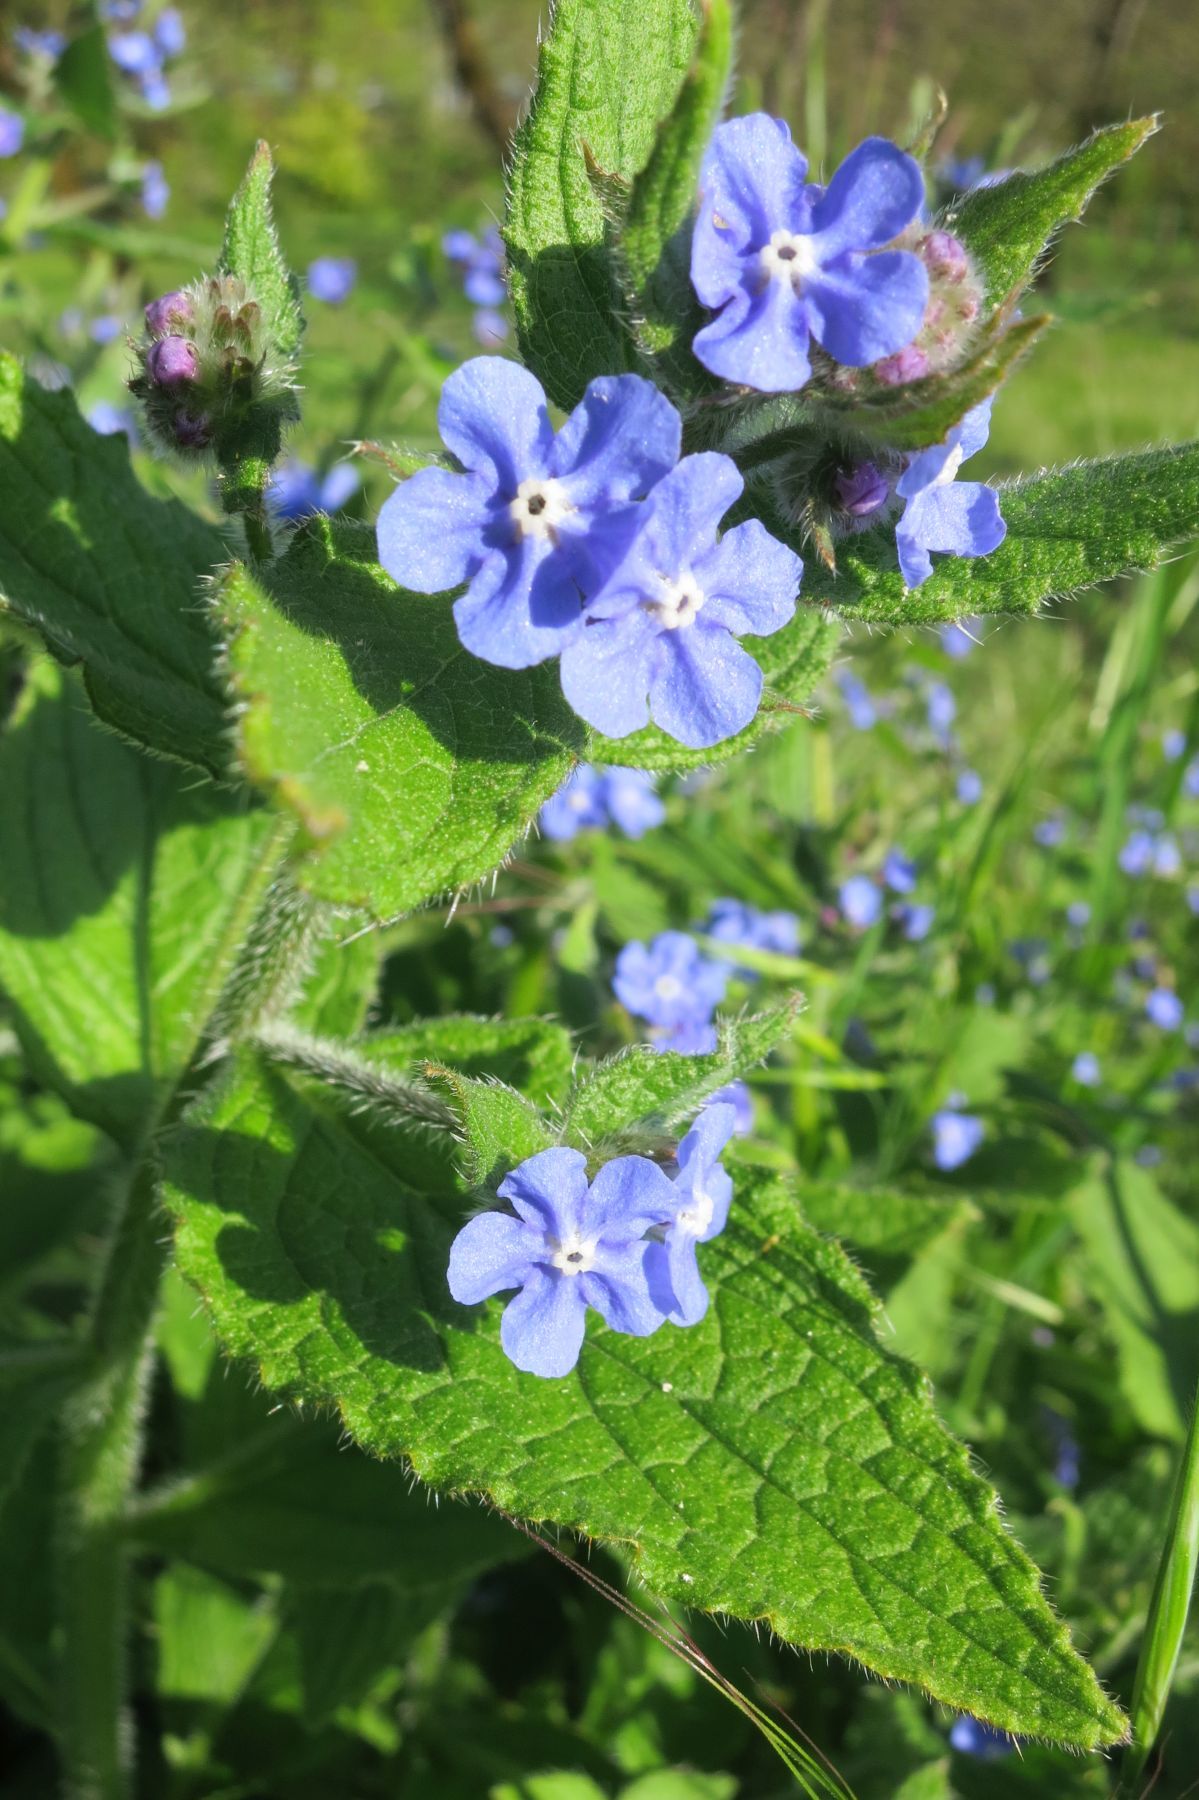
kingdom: Plantae
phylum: Tracheophyta
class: Magnoliopsida
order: Boraginales
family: Boraginaceae
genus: Pentaglottis
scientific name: Pentaglottis sempervirens
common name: Green alkanet
